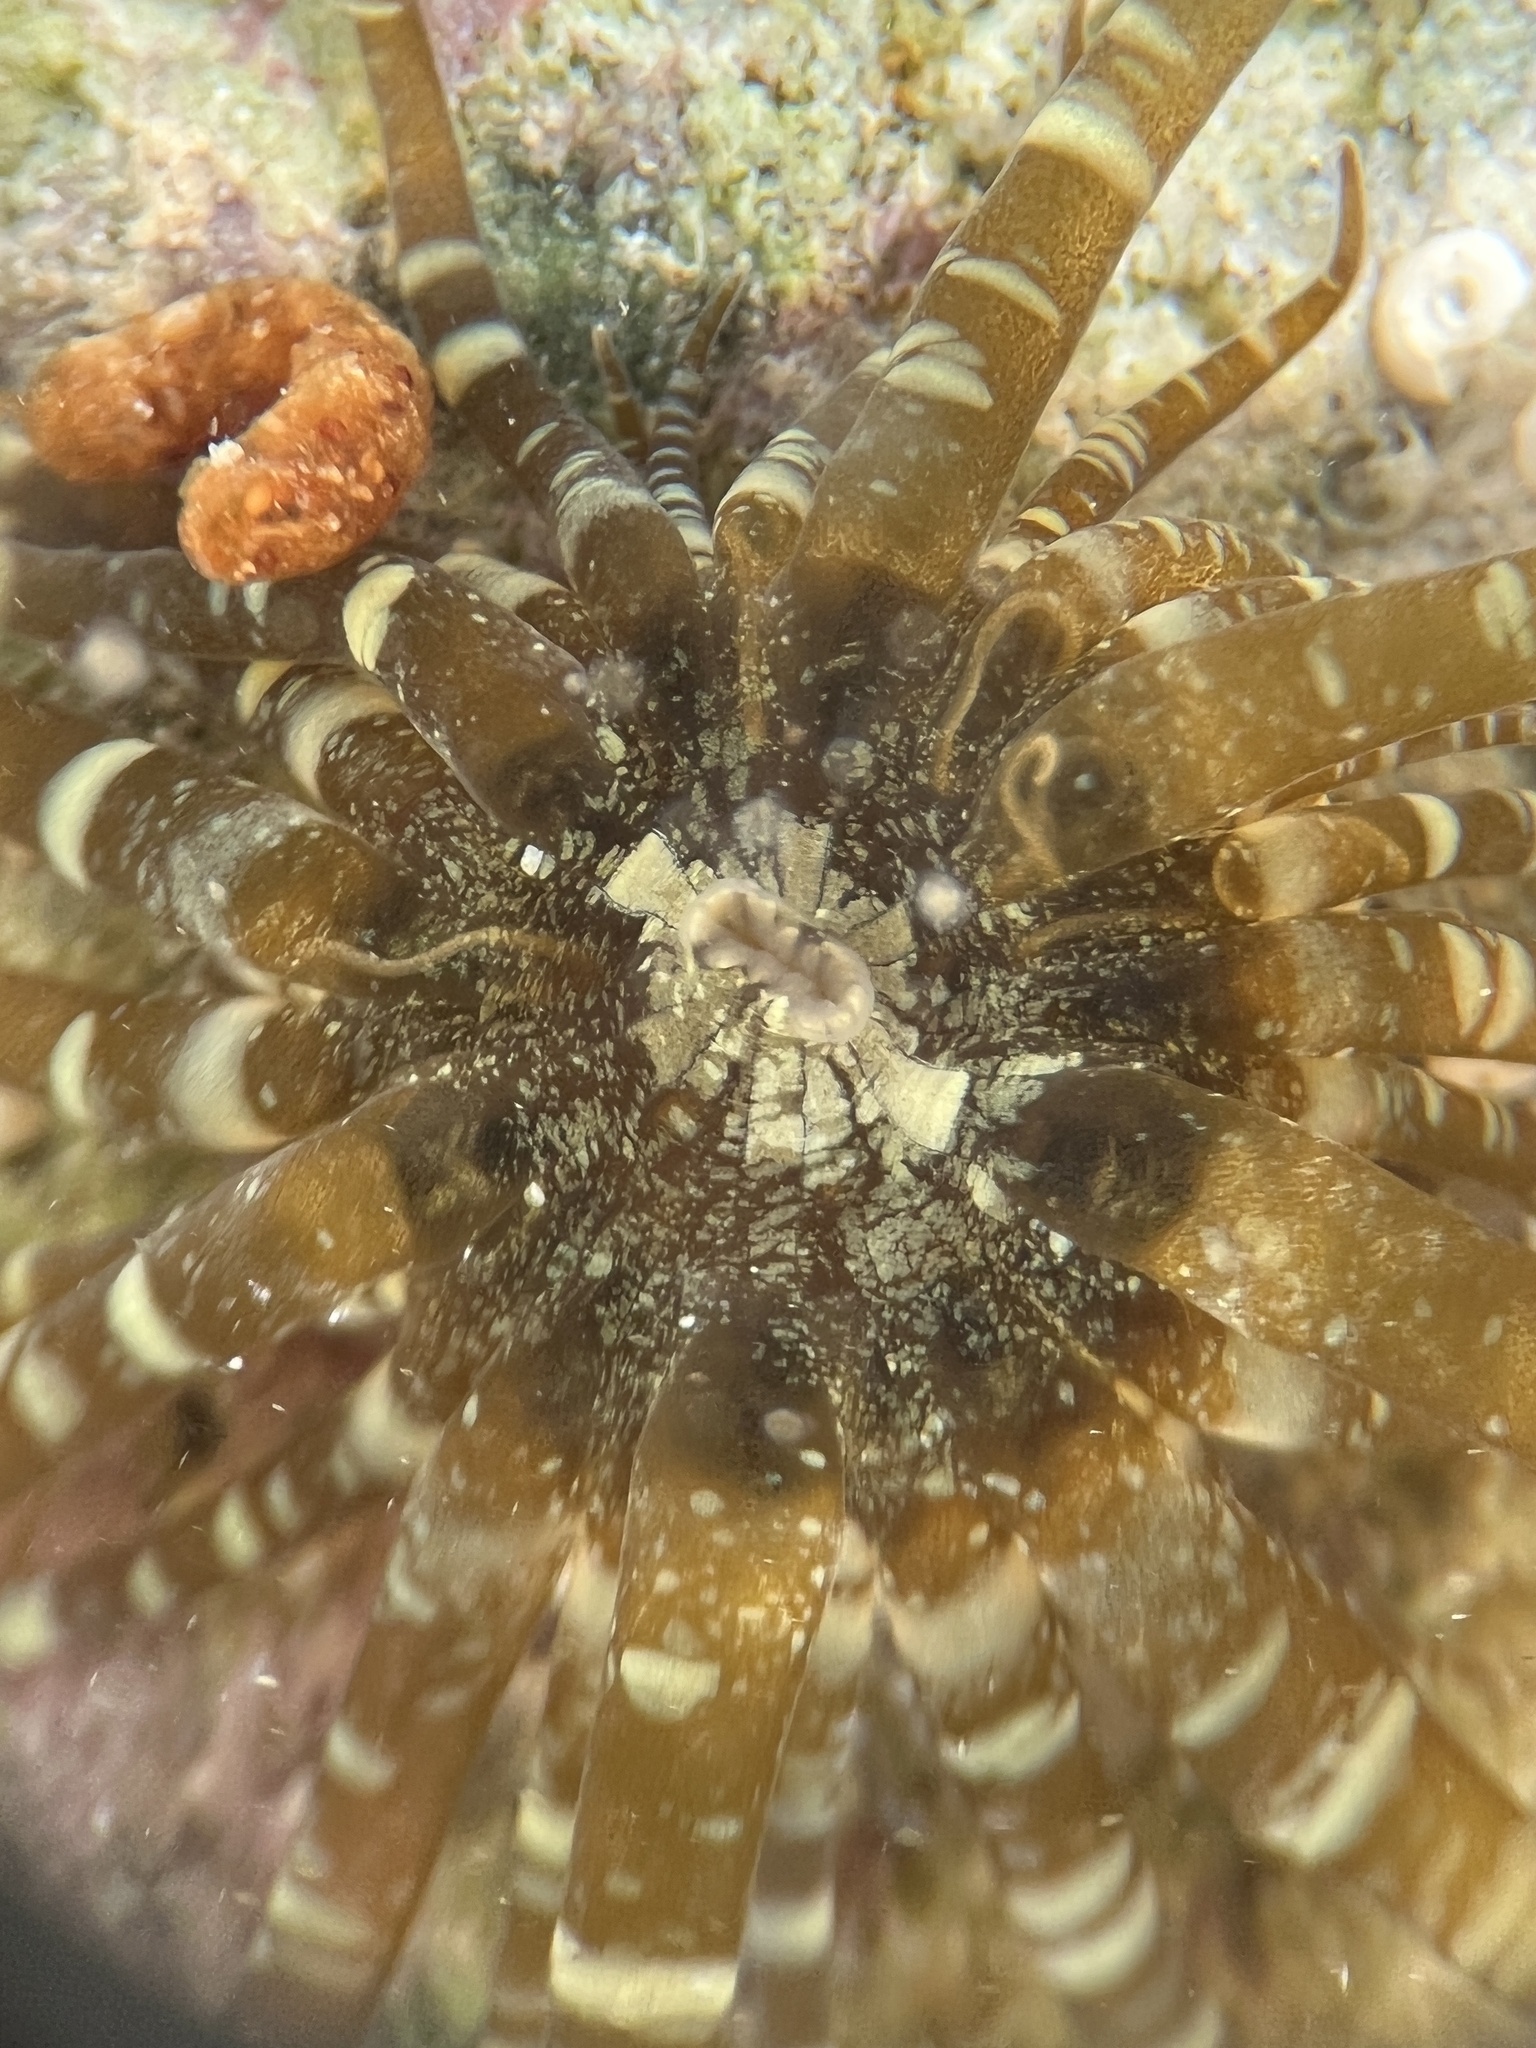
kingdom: Animalia
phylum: Cnidaria
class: Anthozoa
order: Actiniaria
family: Aiptasiidae
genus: Exaiptasia
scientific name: Exaiptasia diaphana
